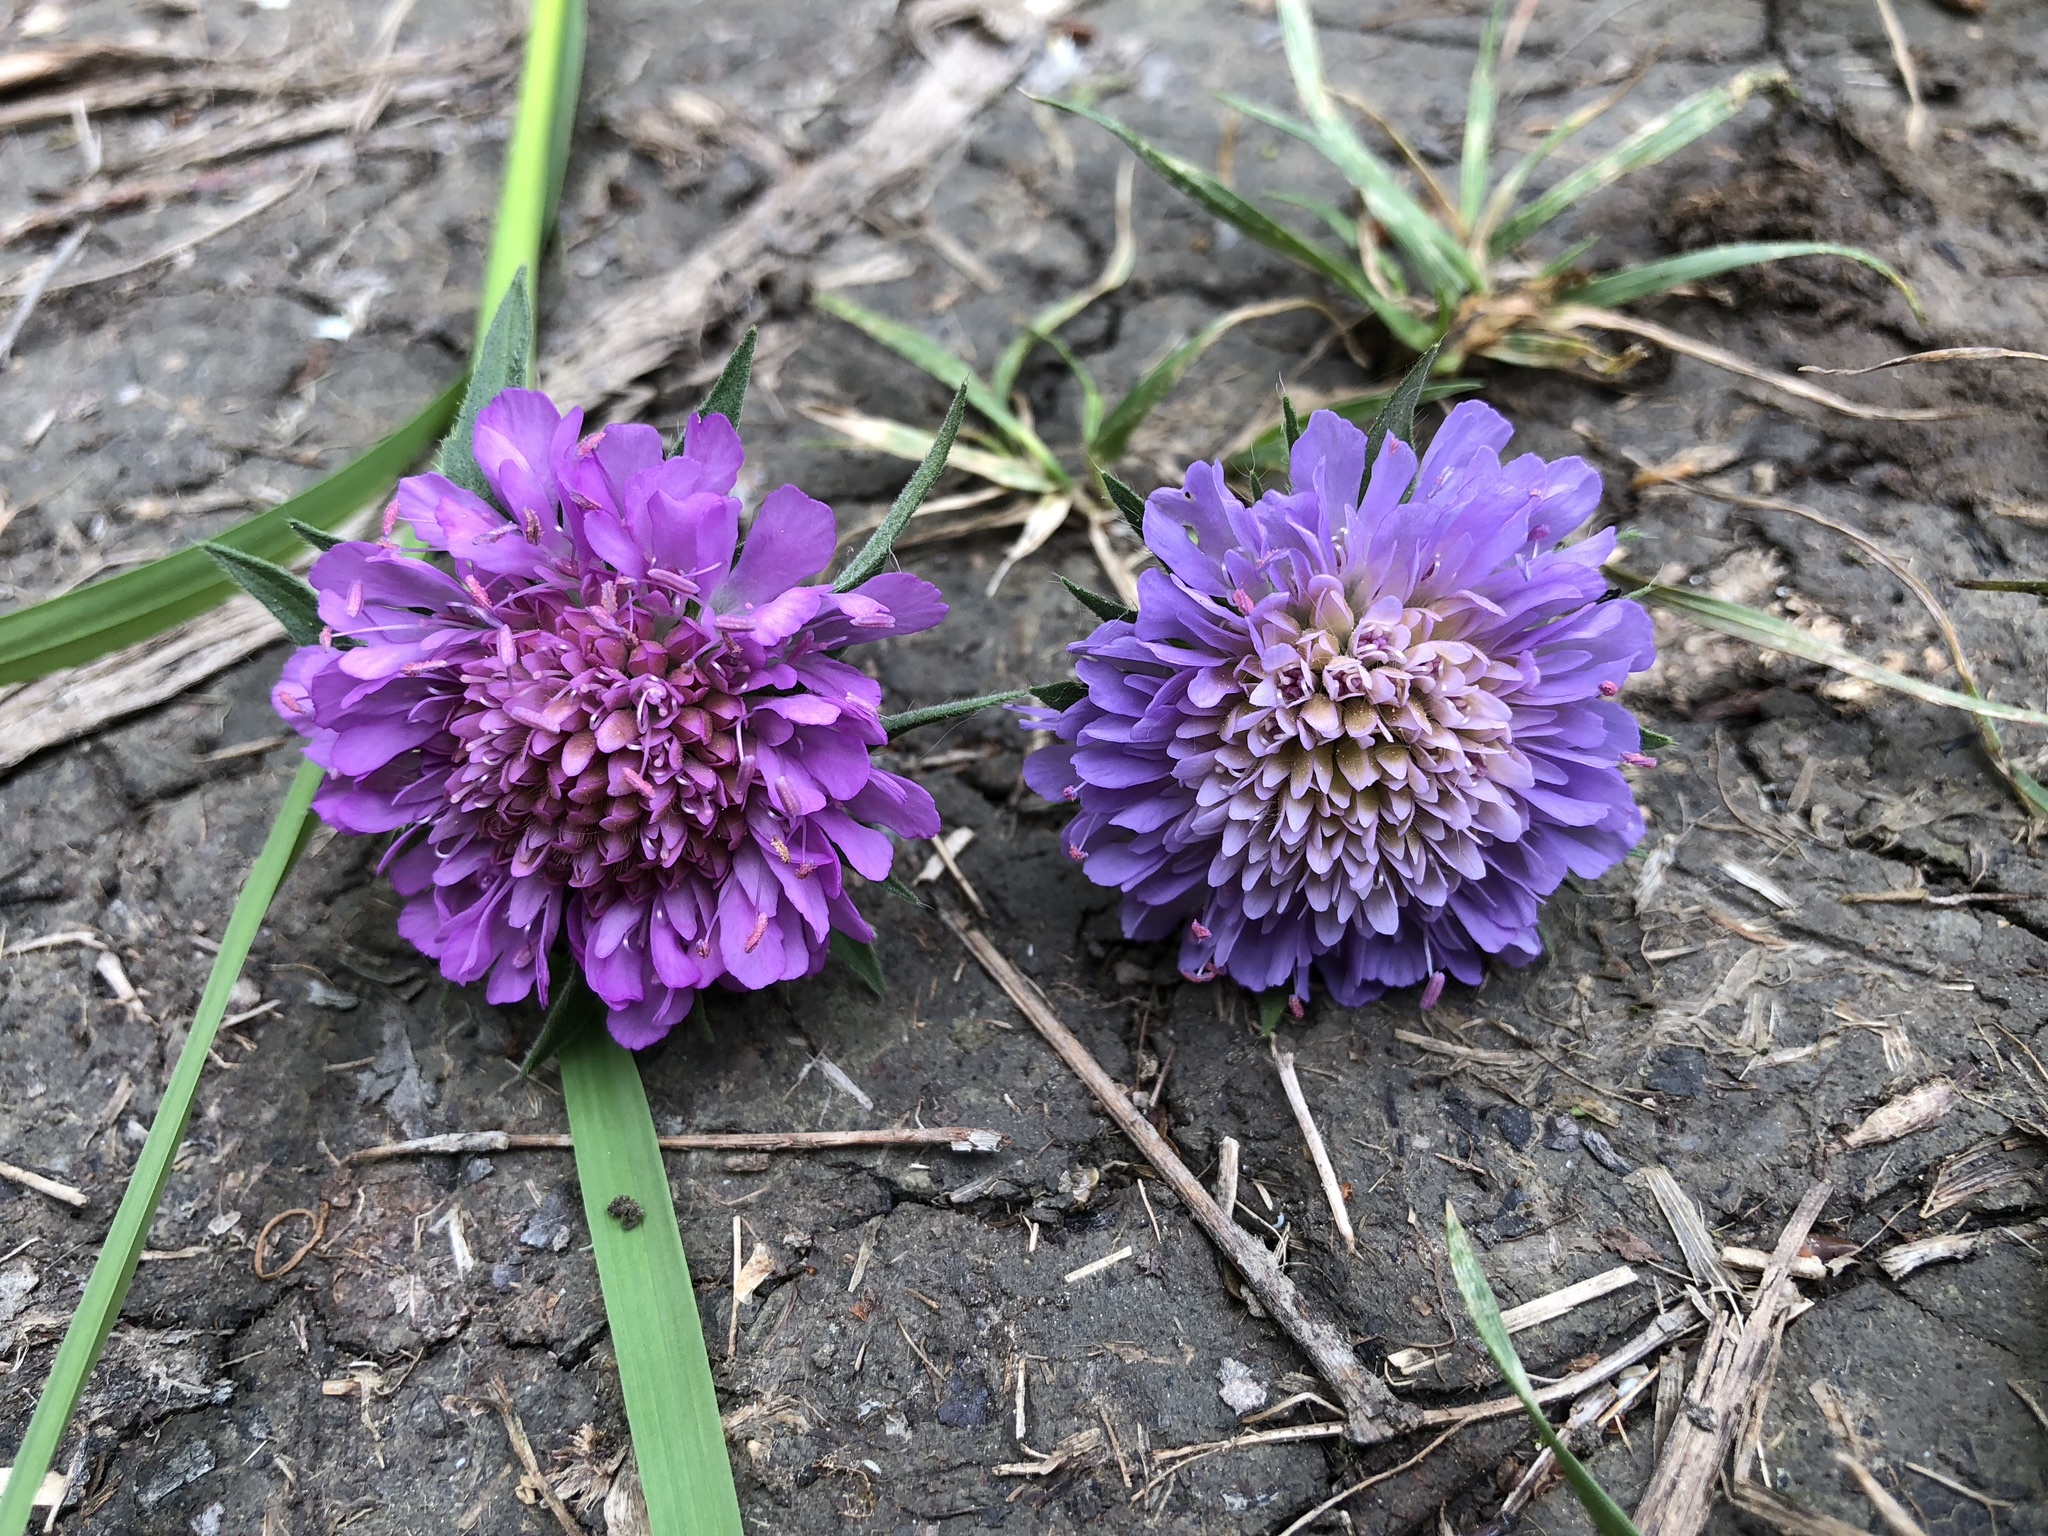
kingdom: Plantae
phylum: Tracheophyta
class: Magnoliopsida
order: Dipsacales
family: Caprifoliaceae
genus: Knautia
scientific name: Knautia dipsacifolia
